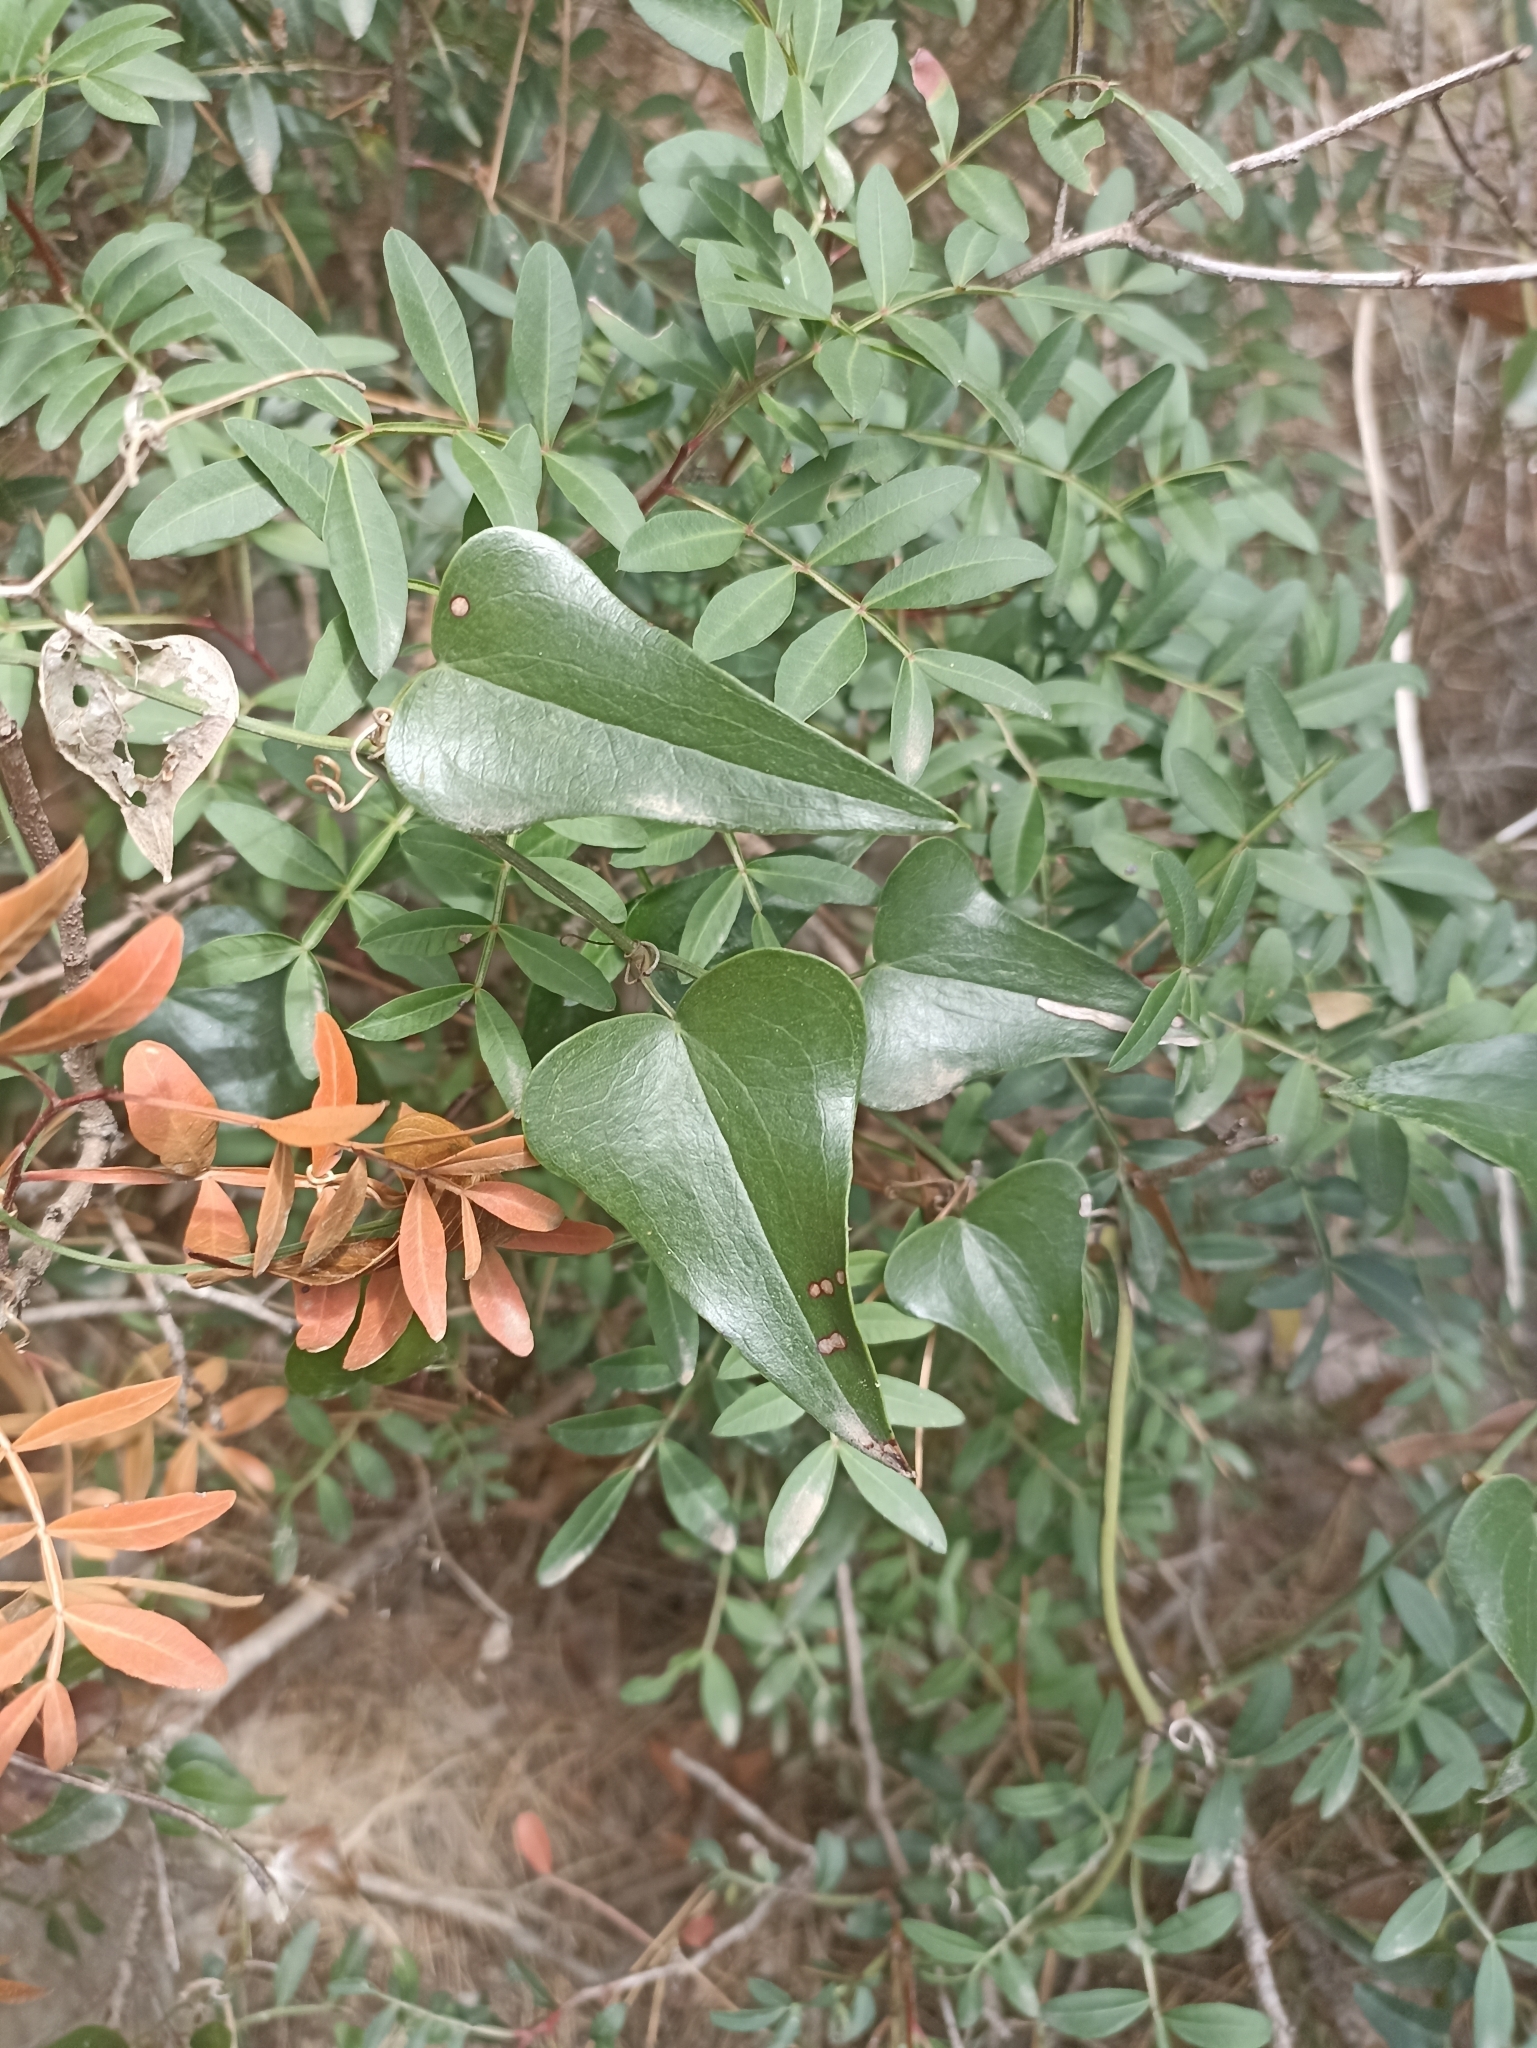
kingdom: Plantae
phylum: Tracheophyta
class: Liliopsida
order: Liliales
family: Smilacaceae
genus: Smilax
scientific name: Smilax aspera
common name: Common smilax
